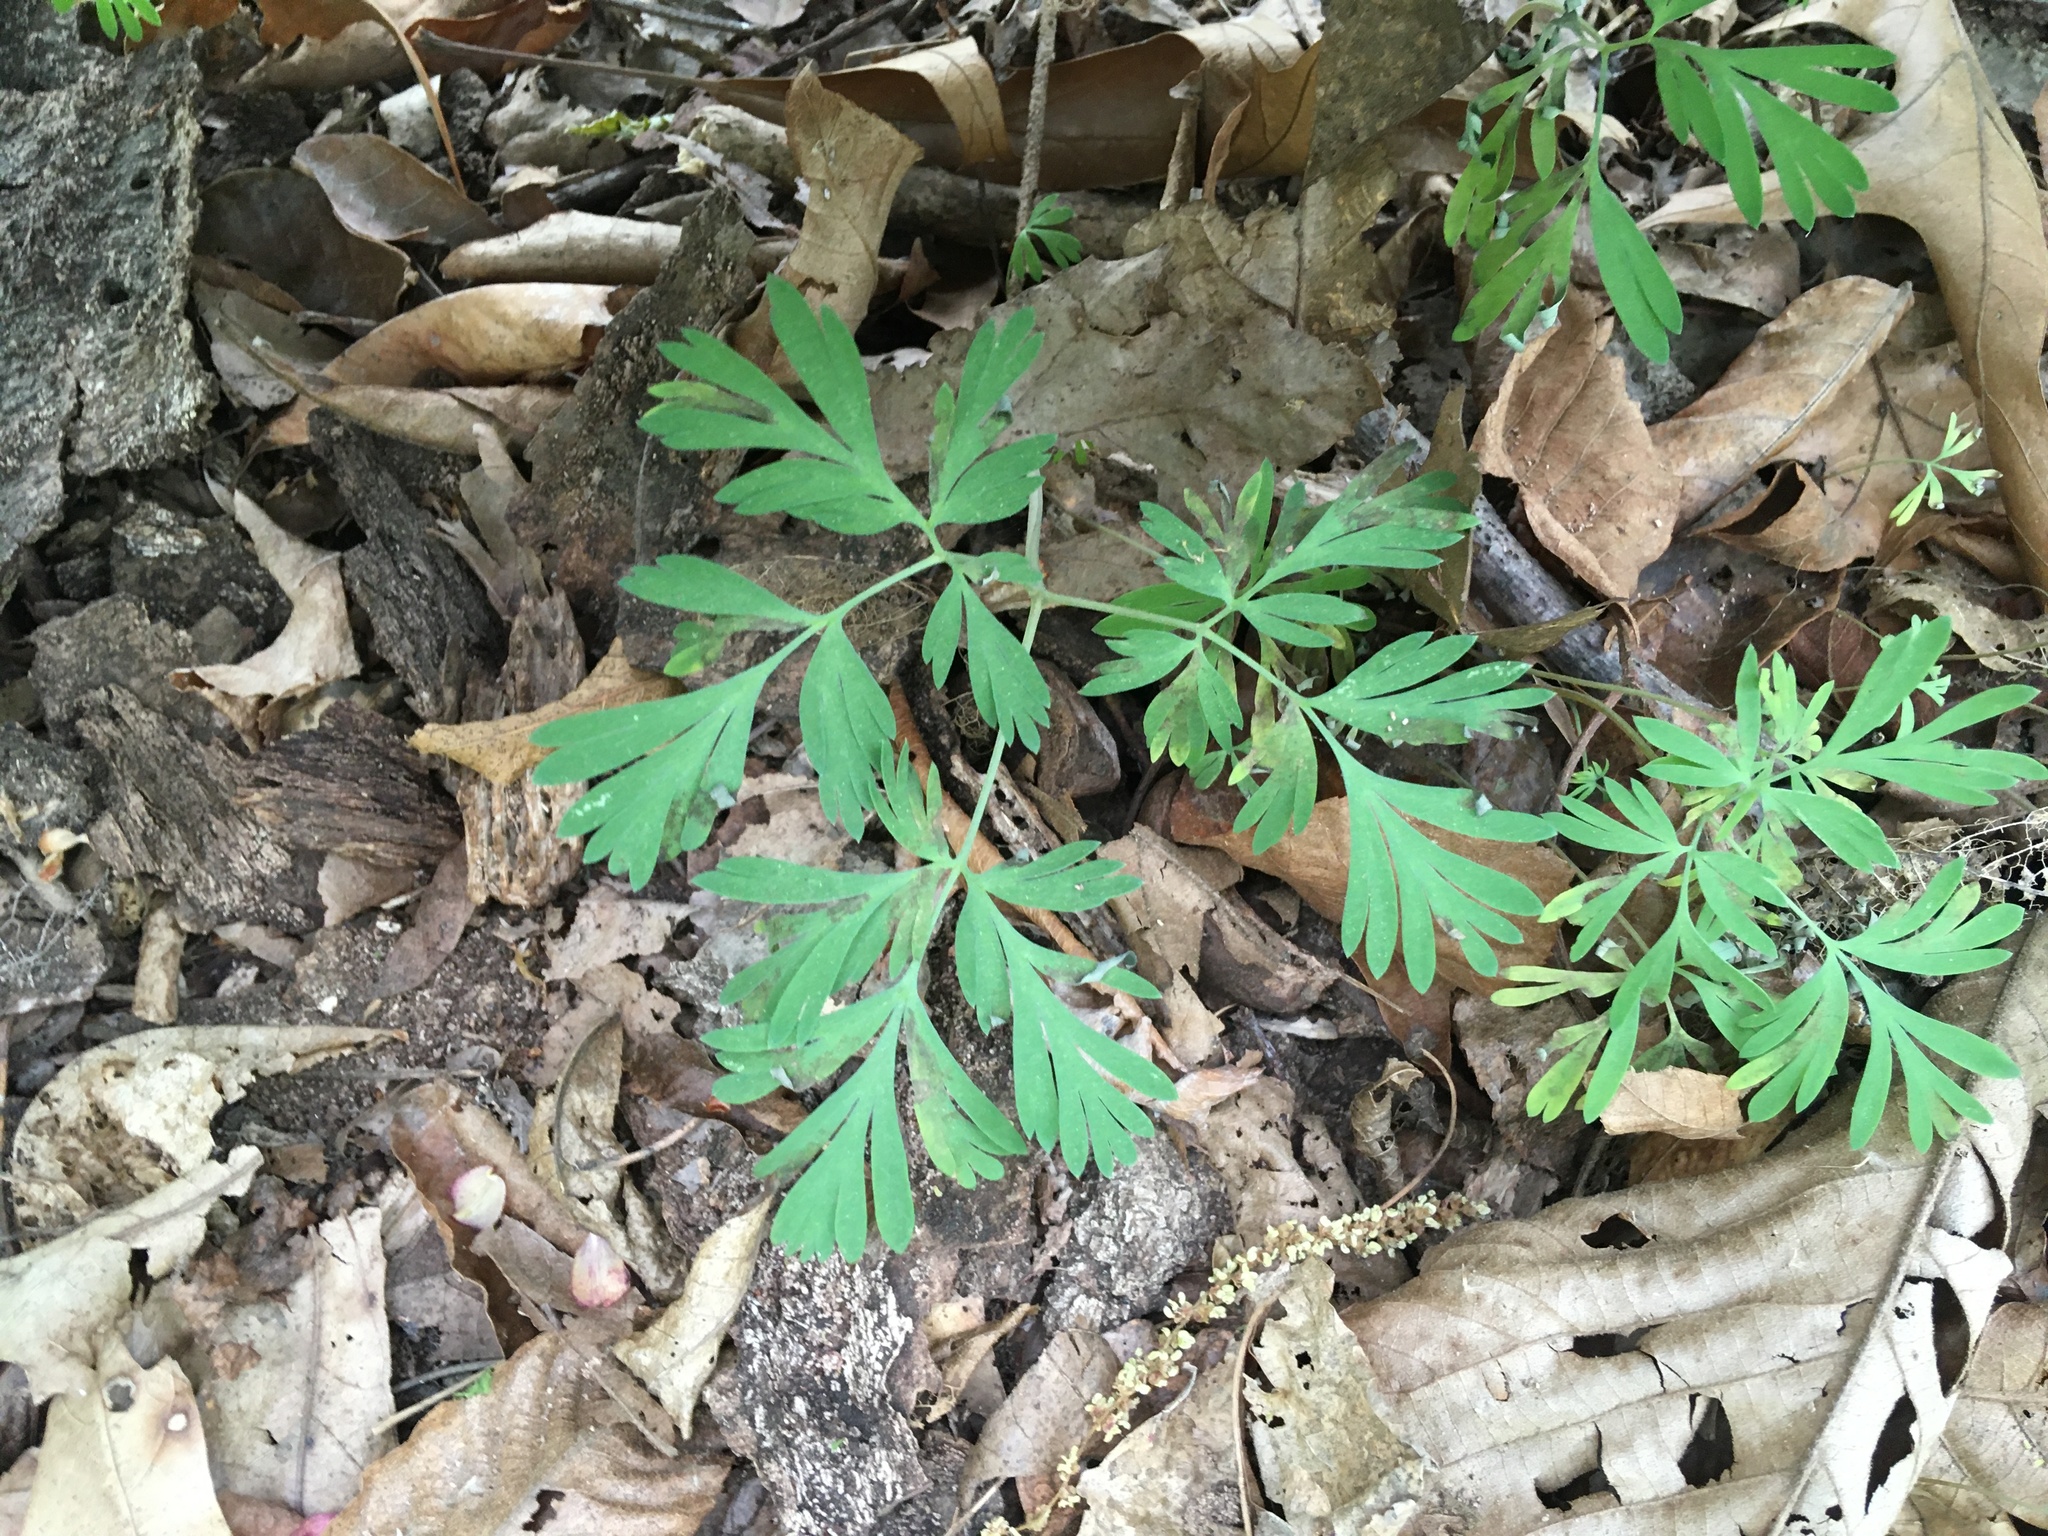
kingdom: Plantae
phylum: Tracheophyta
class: Magnoliopsida
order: Ranunculales
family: Papaveraceae
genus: Dicentra
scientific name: Dicentra cucullaria
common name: Dutchman's breeches
